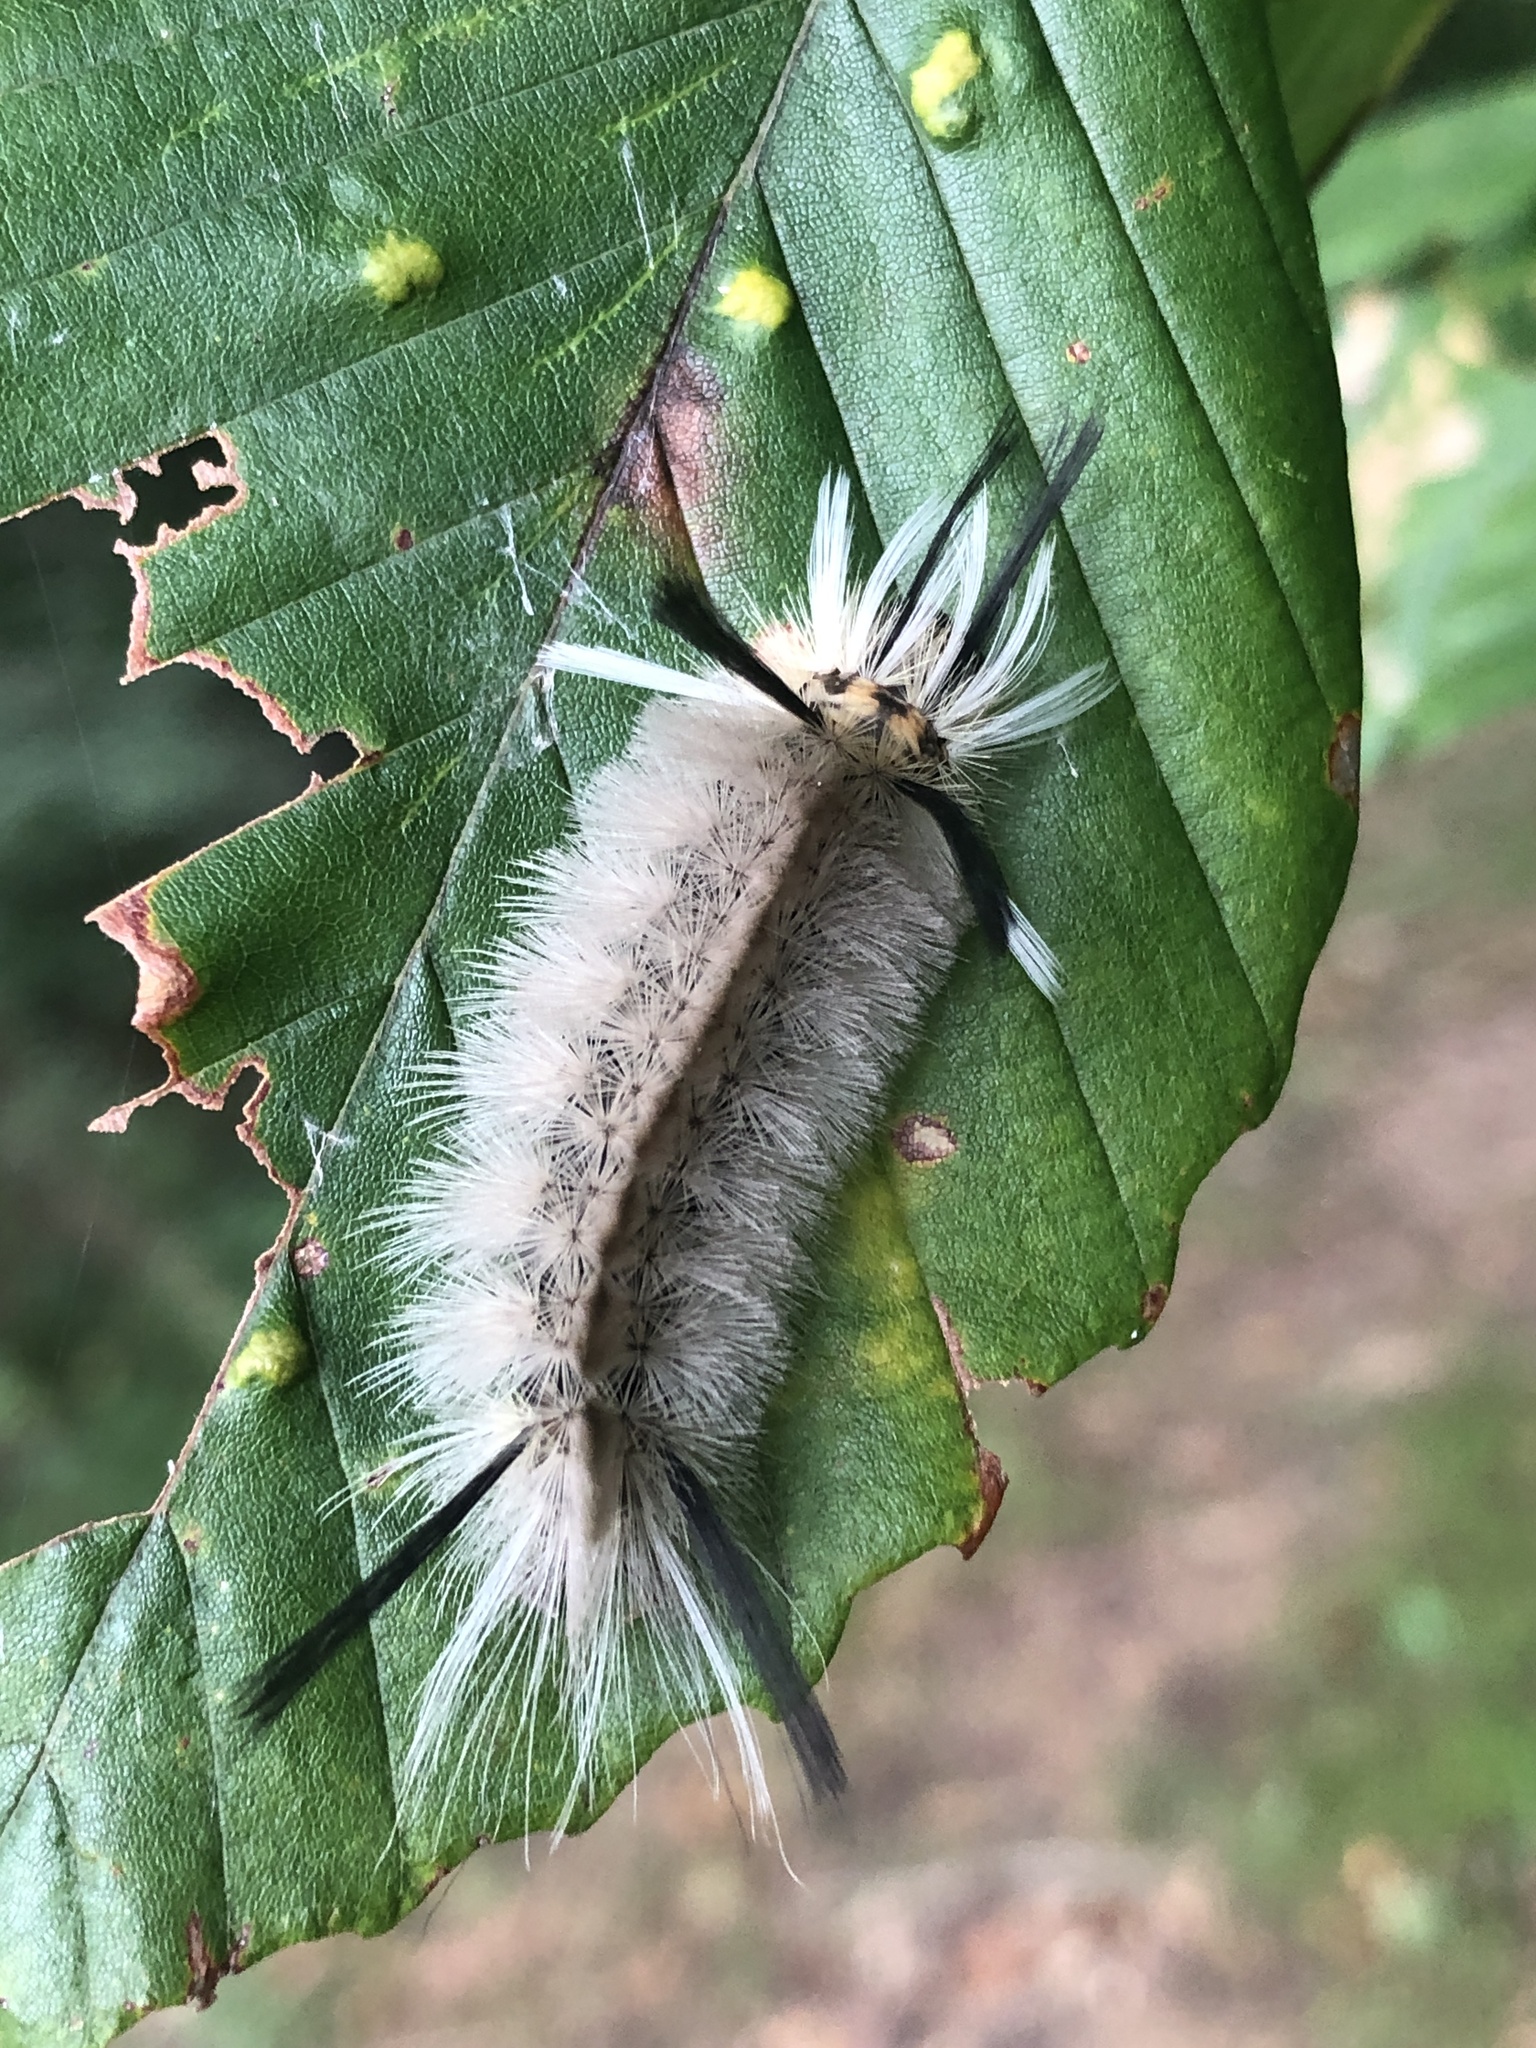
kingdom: Animalia
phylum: Arthropoda
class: Insecta
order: Lepidoptera
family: Erebidae
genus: Halysidota
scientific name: Halysidota tessellaris
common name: Banded tussock moth
